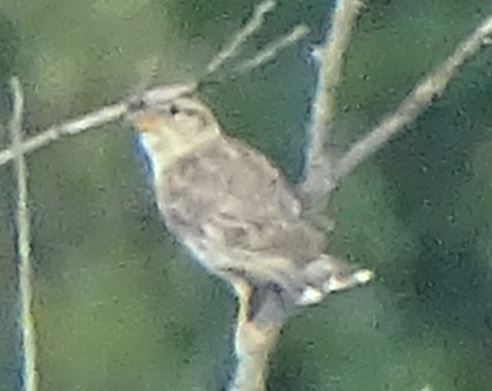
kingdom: Animalia
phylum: Chordata
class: Aves
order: Passeriformes
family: Passeridae
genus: Petronia
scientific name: Petronia petronia
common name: Rock sparrow
